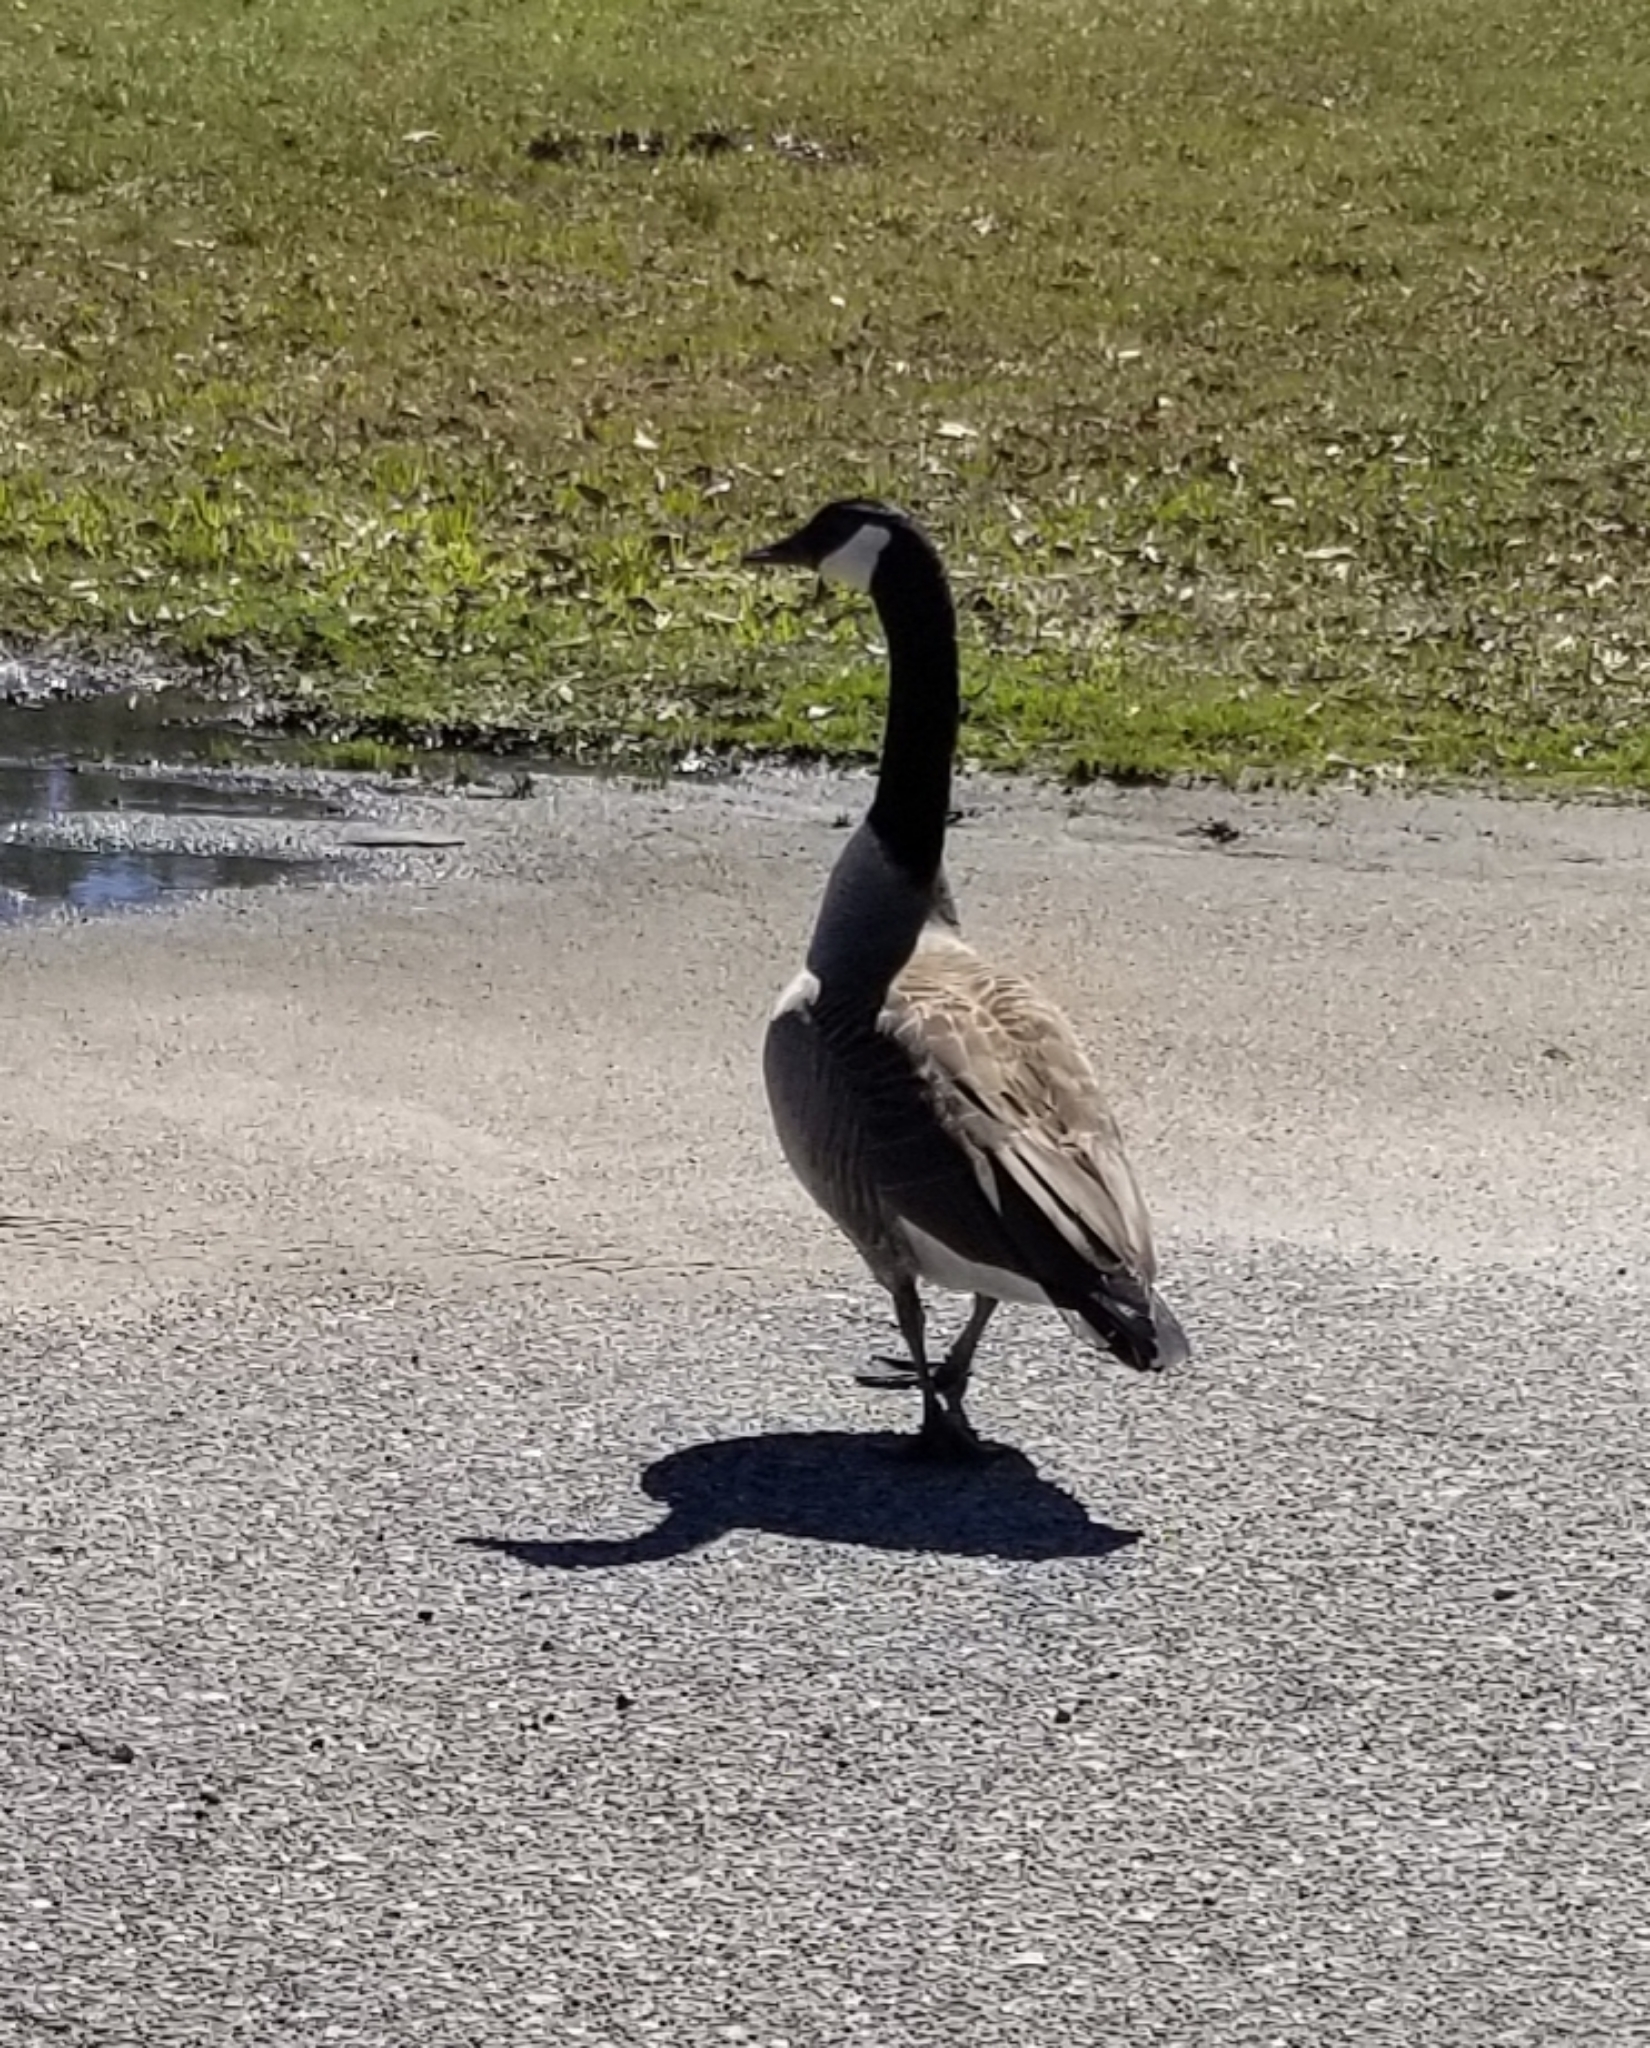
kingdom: Animalia
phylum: Chordata
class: Aves
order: Anseriformes
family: Anatidae
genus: Branta
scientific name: Branta canadensis
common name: Canada goose
